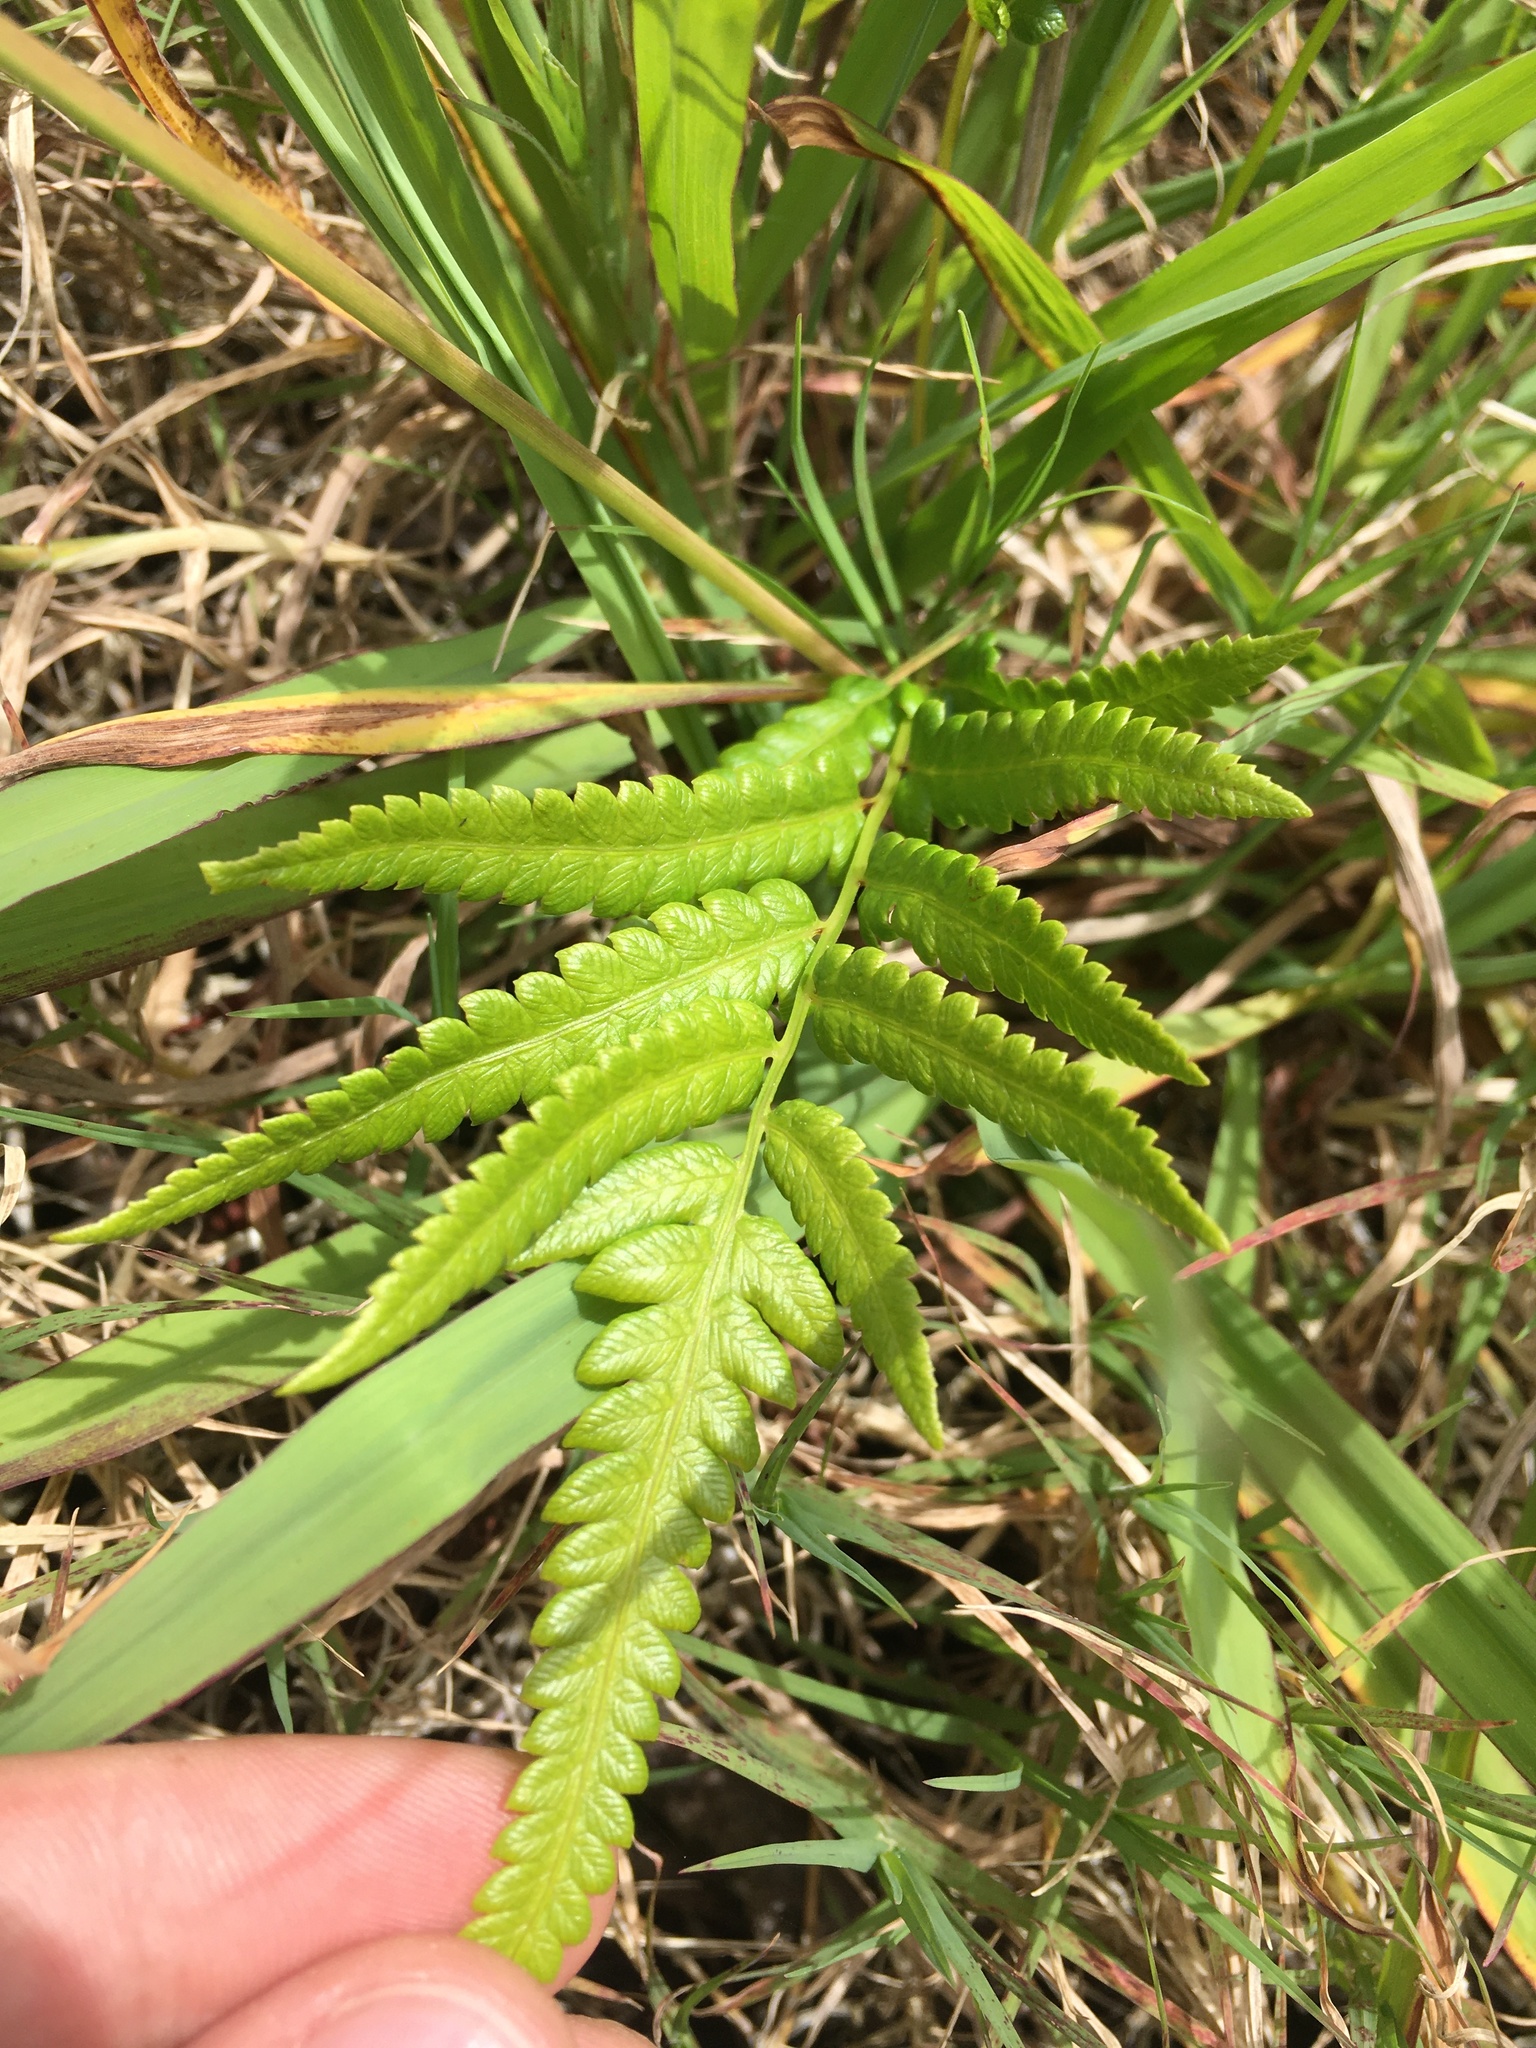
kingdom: Plantae
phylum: Tracheophyta
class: Polypodiopsida
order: Polypodiales
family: Thelypteridaceae
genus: Cyclosorus
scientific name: Cyclosorus interruptus
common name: Neke fern
